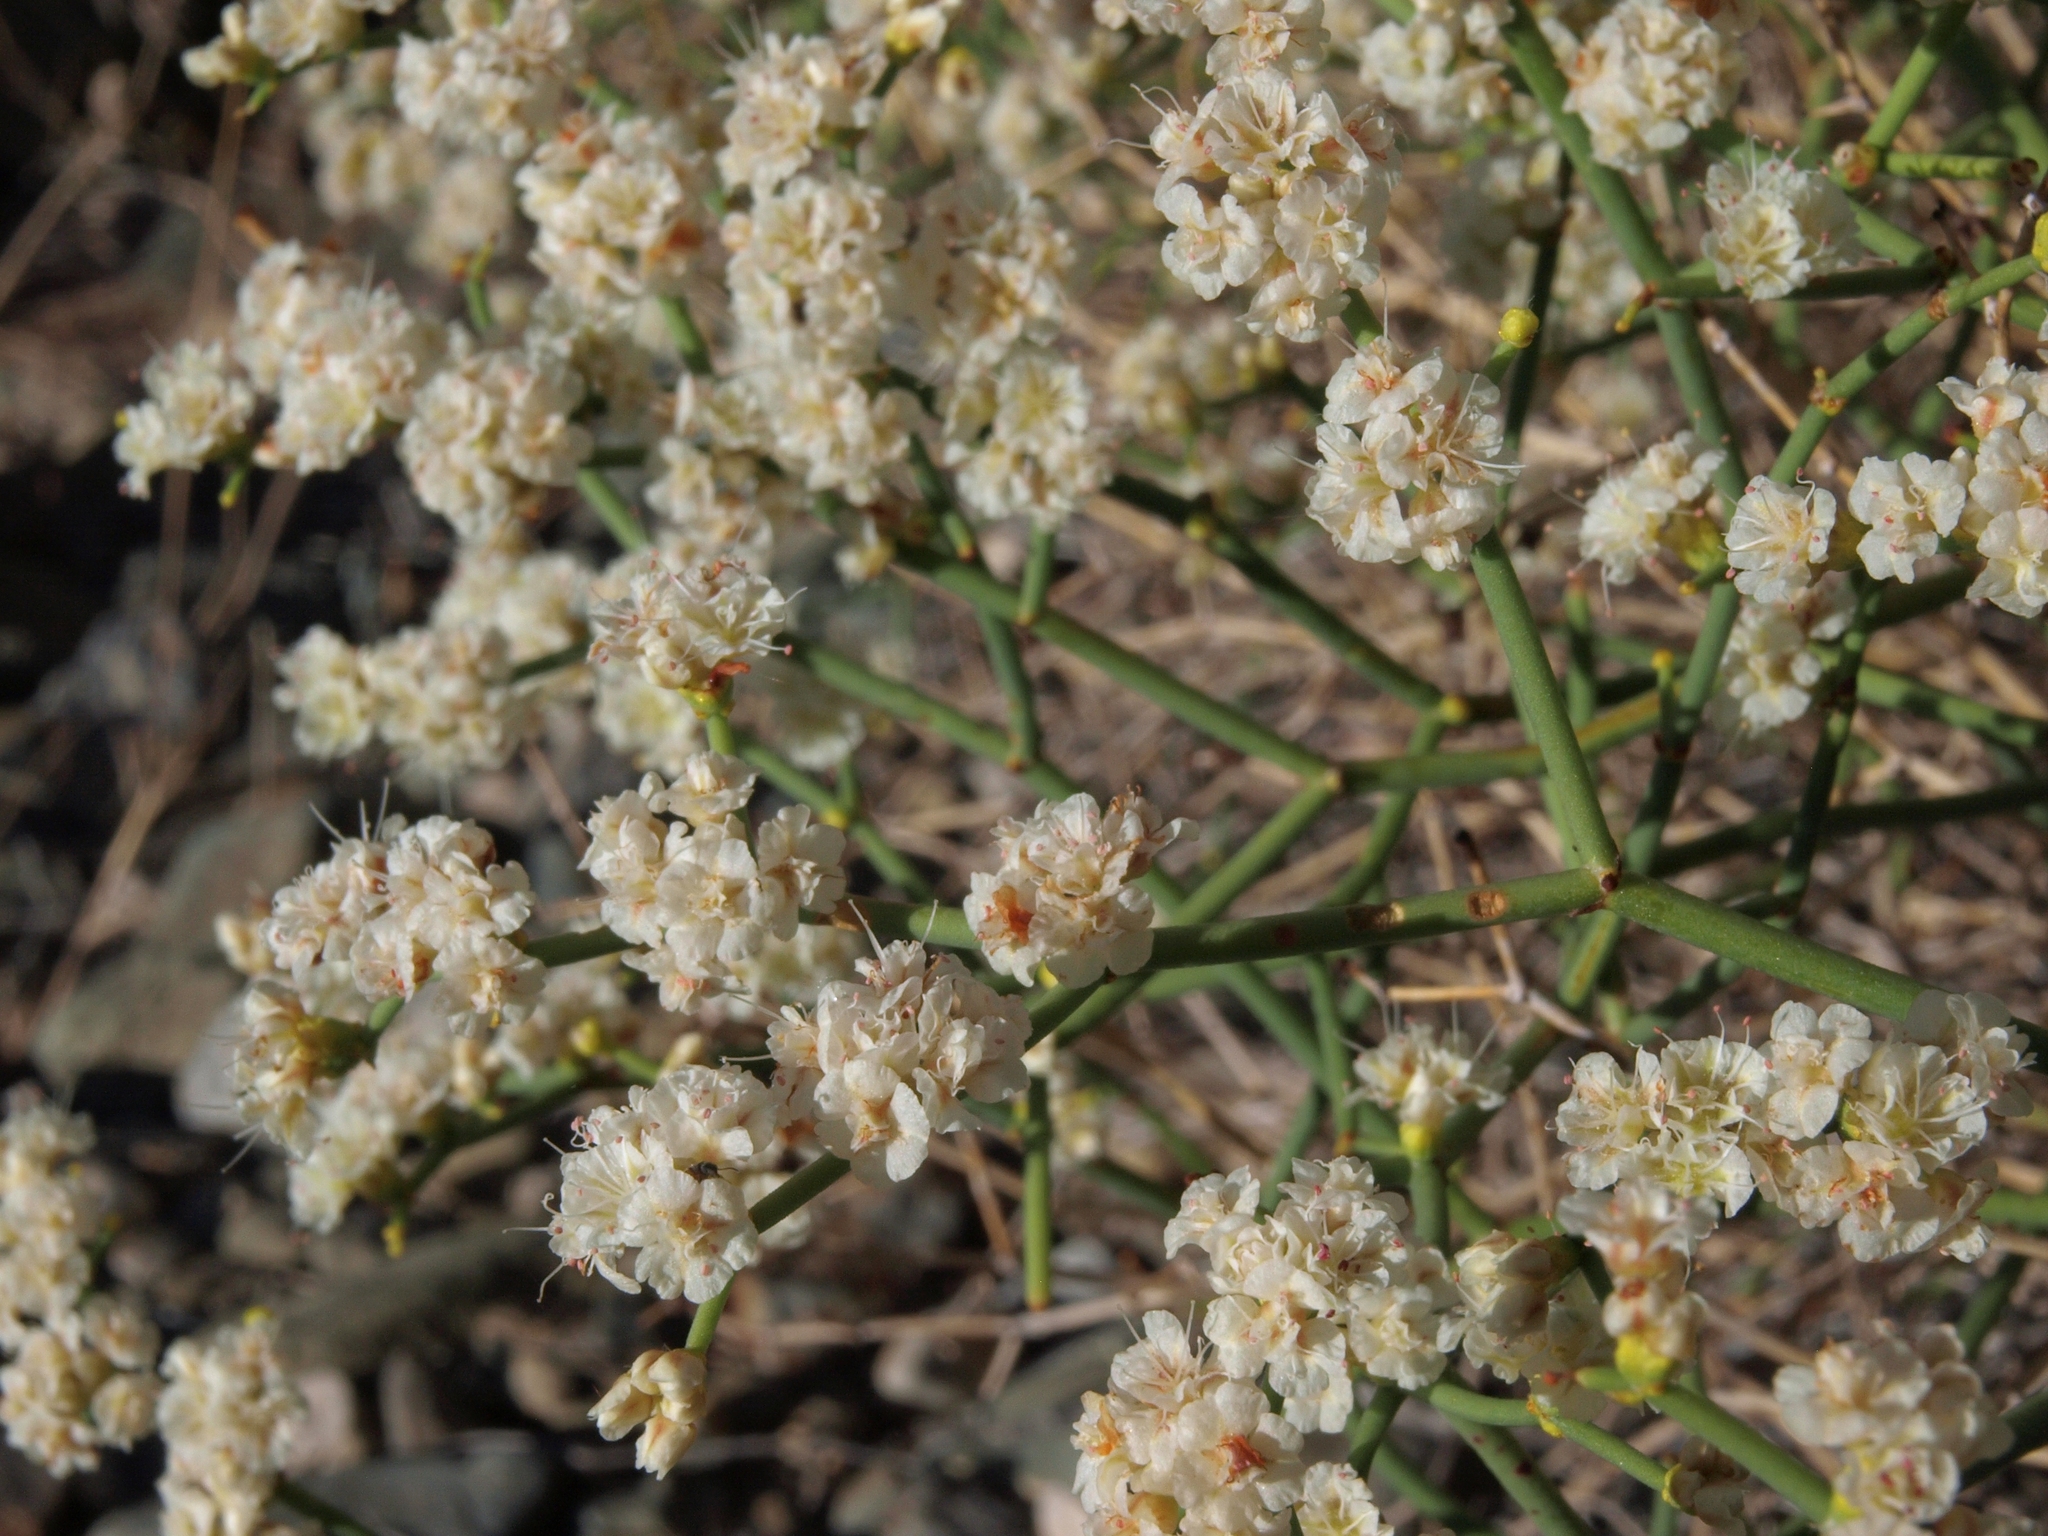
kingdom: Plantae
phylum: Tracheophyta
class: Magnoliopsida
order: Caryophyllales
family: Polygonaceae
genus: Eriogonum
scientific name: Eriogonum heermannii
